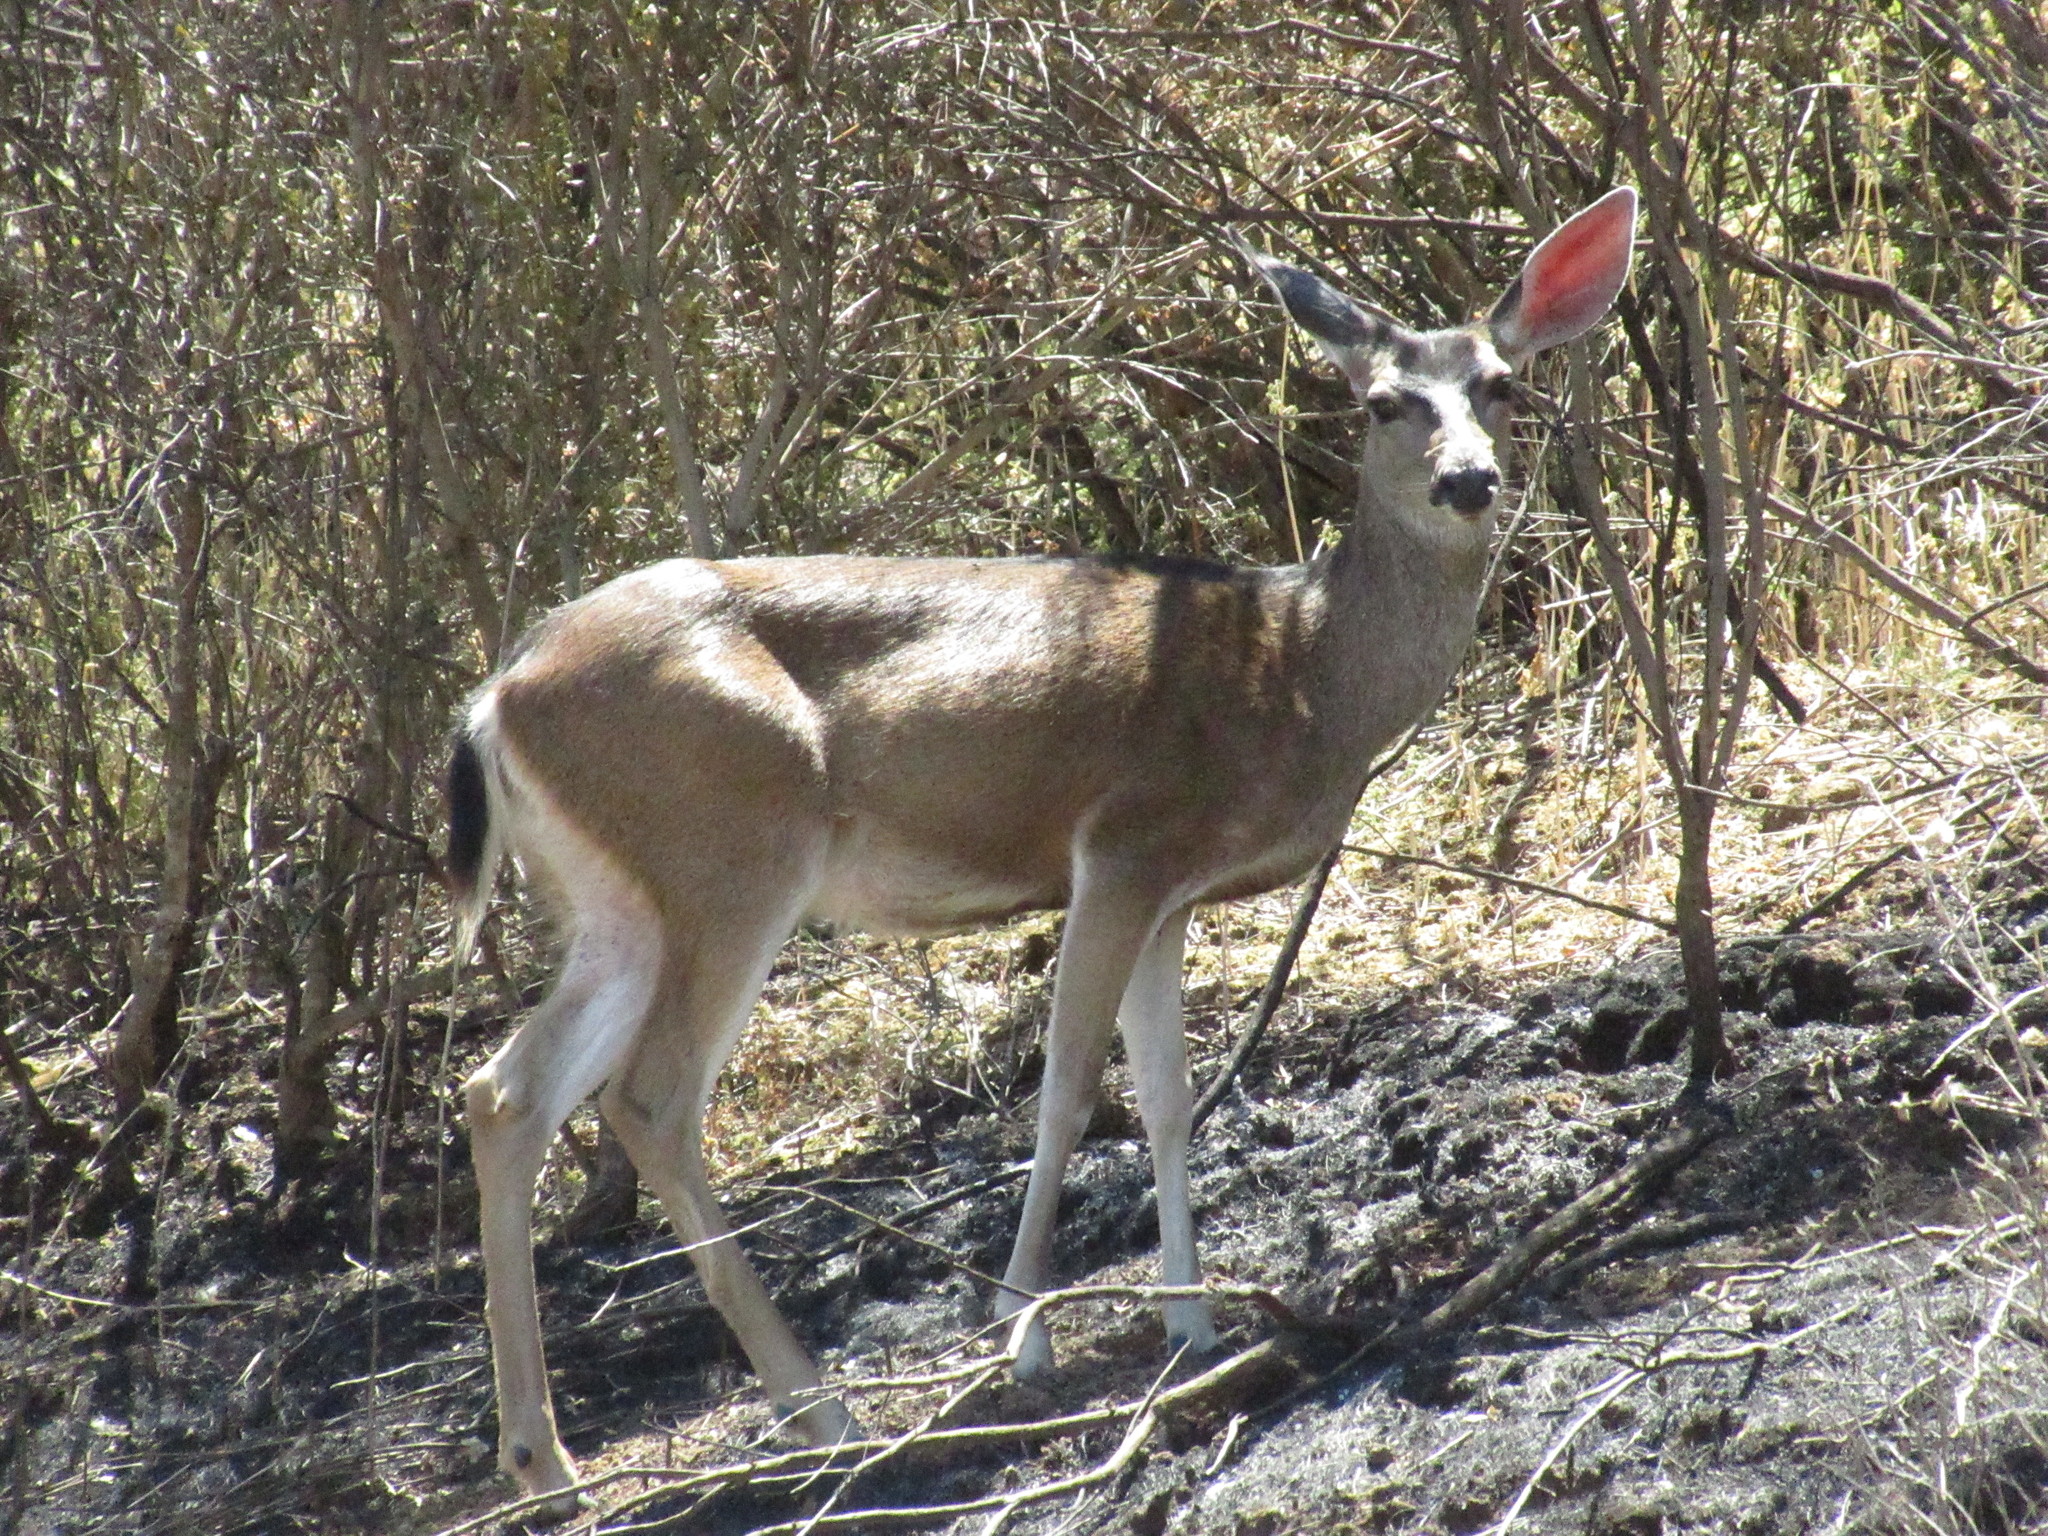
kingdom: Animalia
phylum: Chordata
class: Mammalia
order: Artiodactyla
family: Cervidae
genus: Odocoileus
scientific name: Odocoileus hemionus
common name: Mule deer
